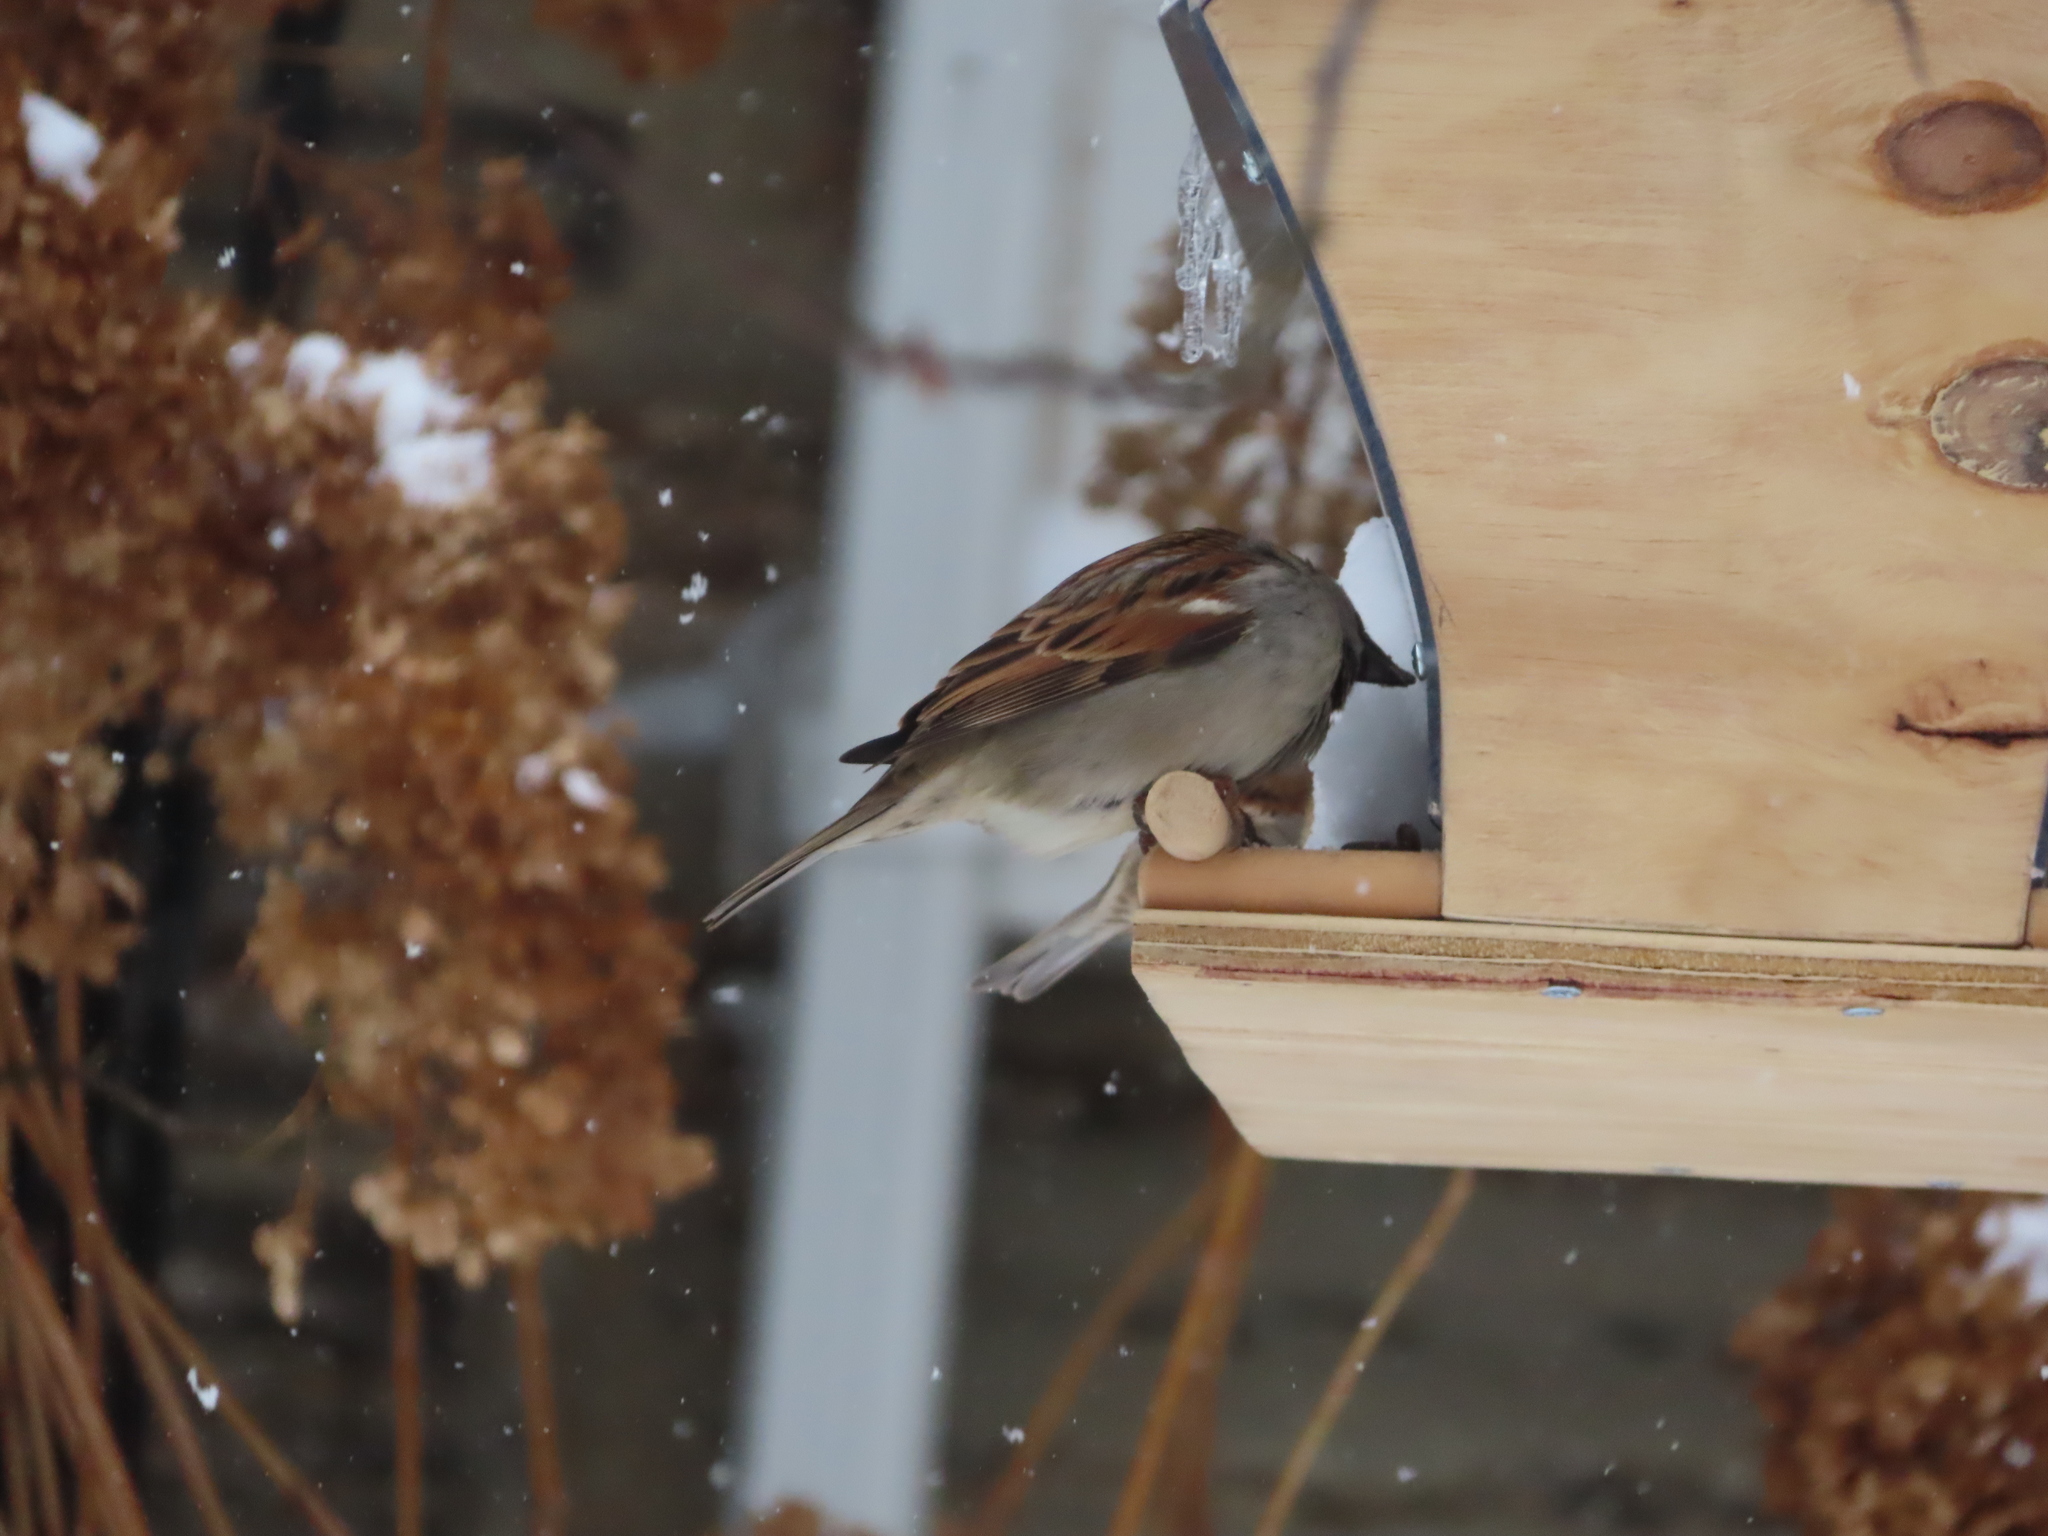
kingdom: Animalia
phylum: Chordata
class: Aves
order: Passeriformes
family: Passeridae
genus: Passer
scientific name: Passer domesticus
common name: House sparrow
